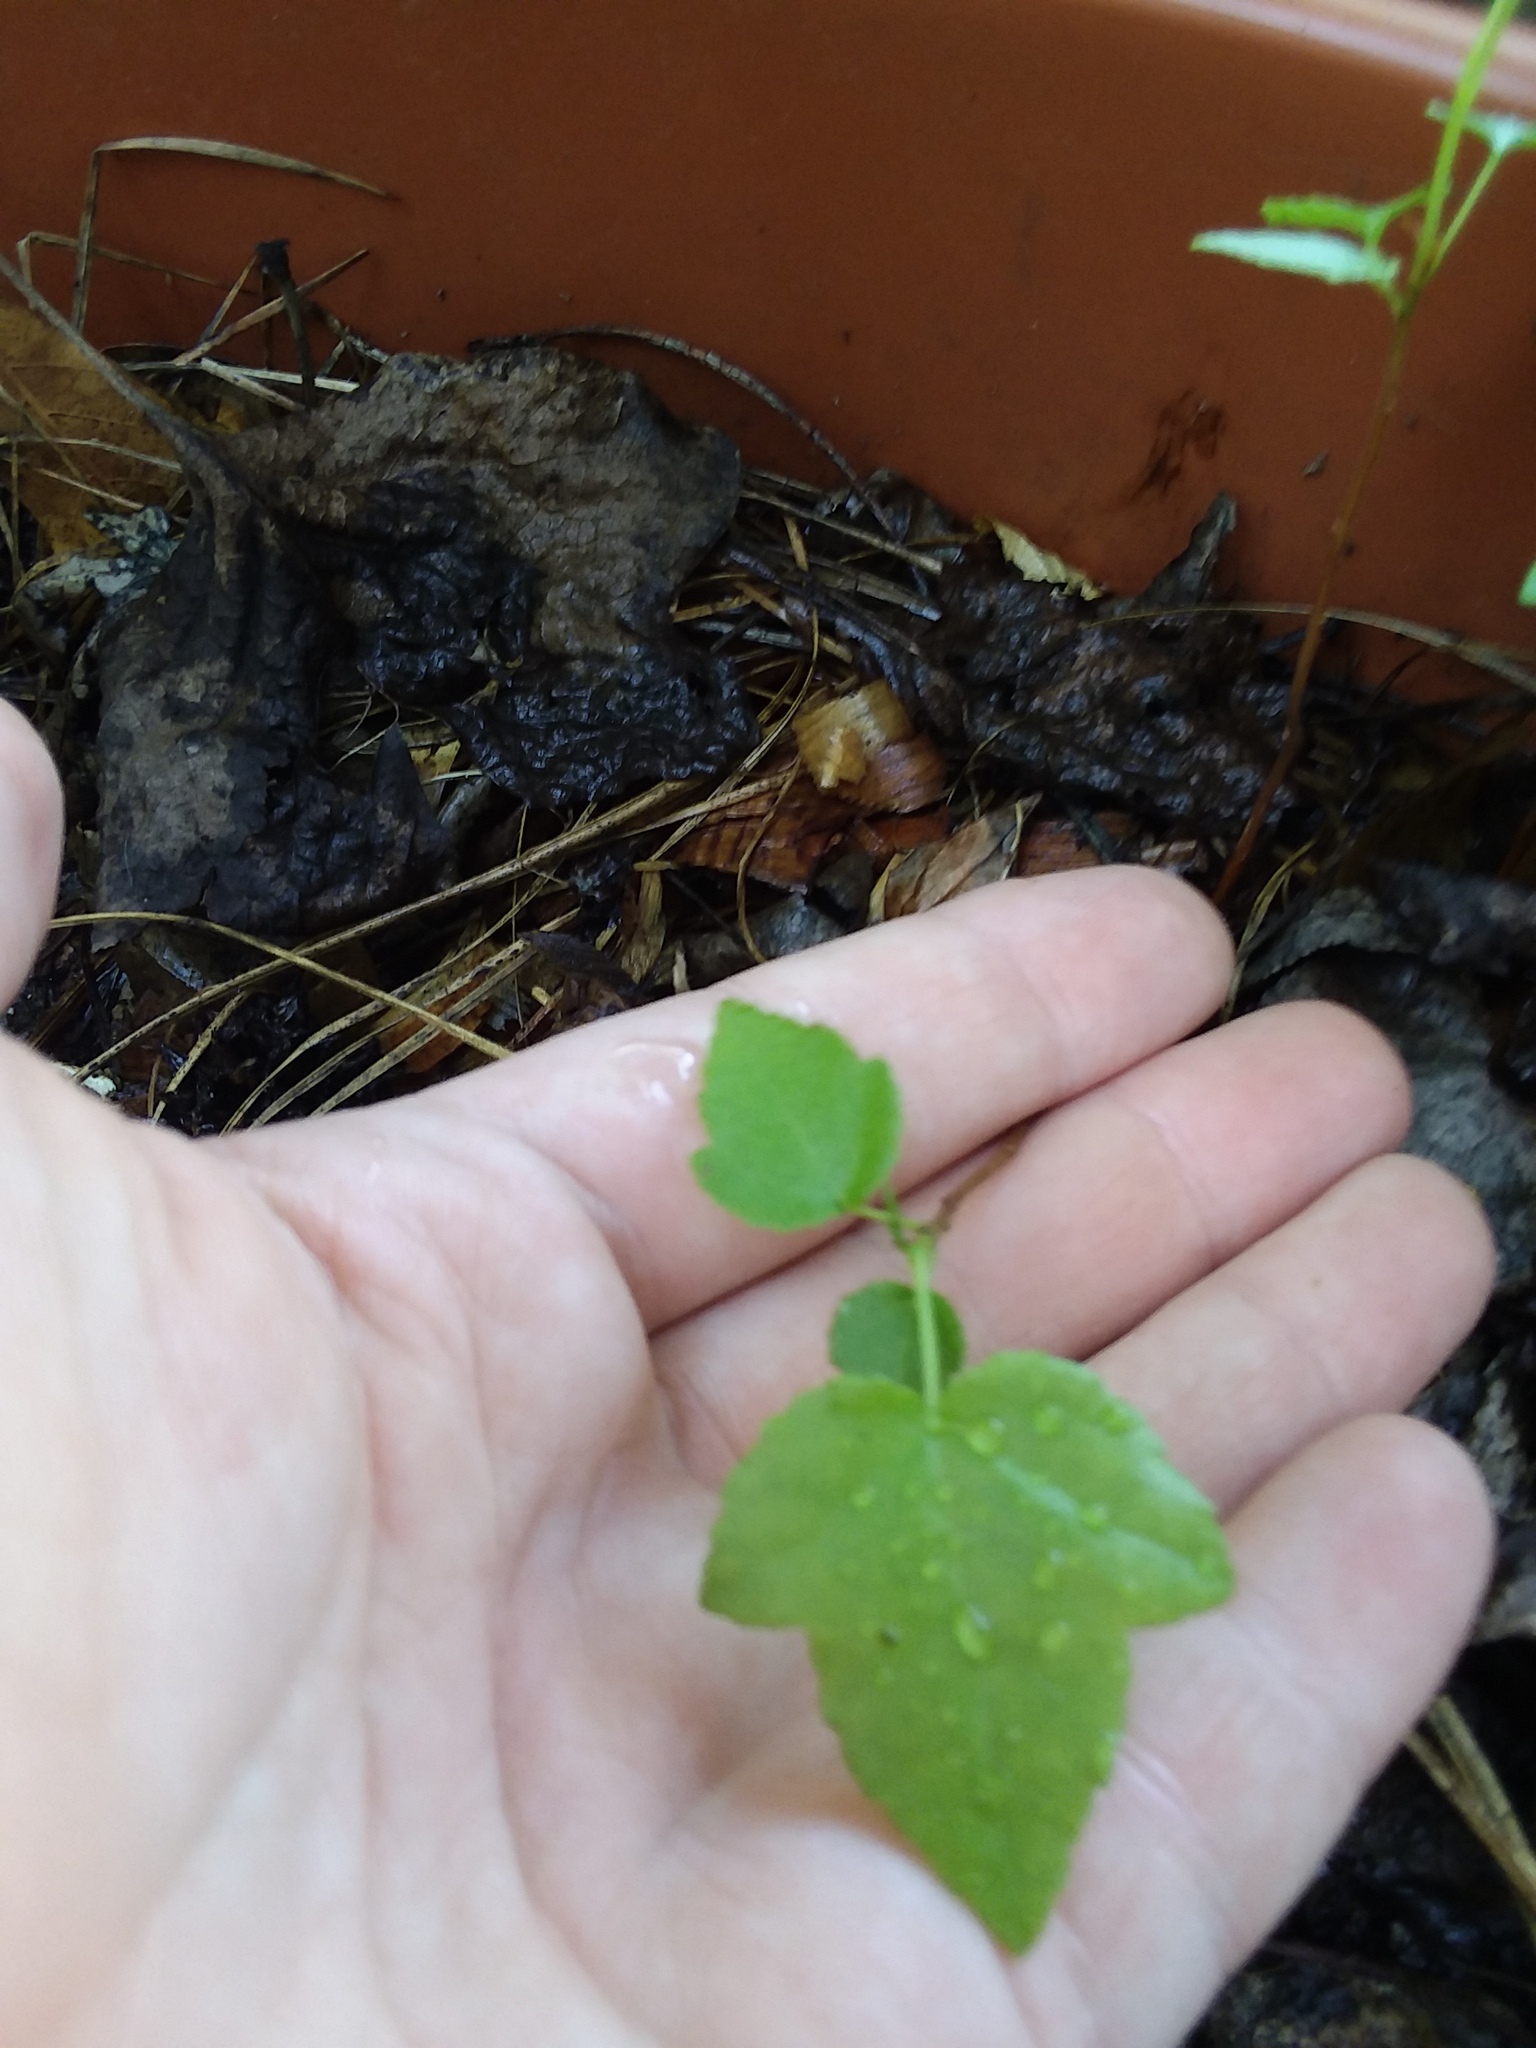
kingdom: Plantae
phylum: Tracheophyta
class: Magnoliopsida
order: Saxifragales
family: Altingiaceae
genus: Liquidambar
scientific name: Liquidambar styraciflua
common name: Sweet gum
